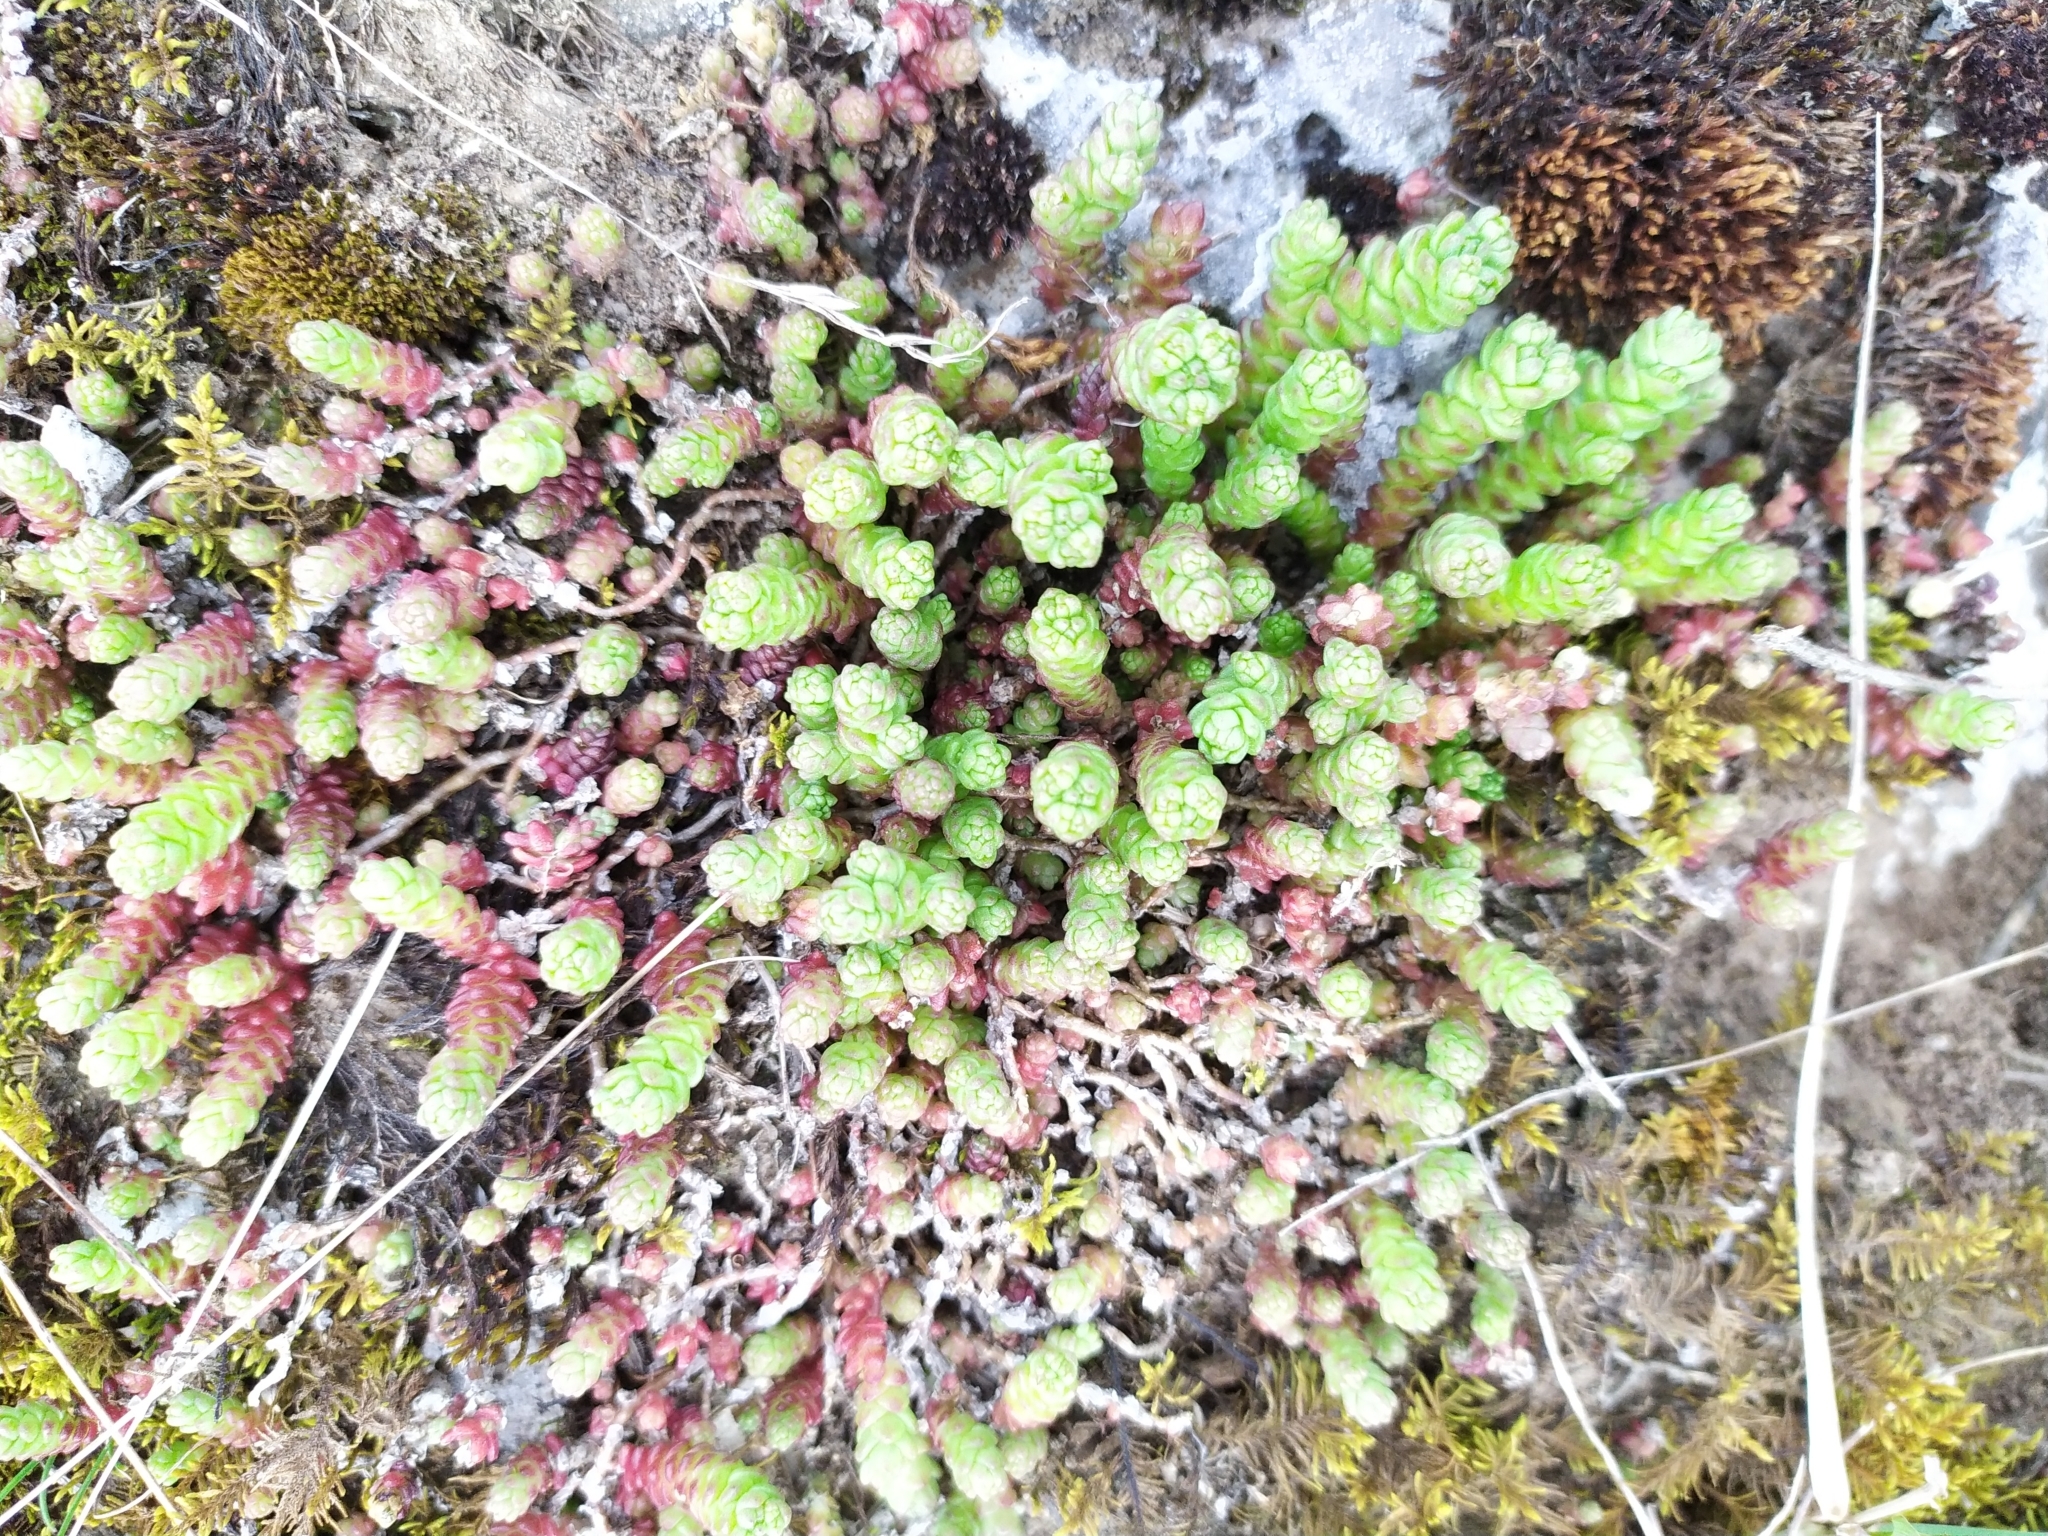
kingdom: Plantae
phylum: Tracheophyta
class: Magnoliopsida
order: Saxifragales
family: Crassulaceae
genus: Sedum
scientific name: Sedum acre
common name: Biting stonecrop
